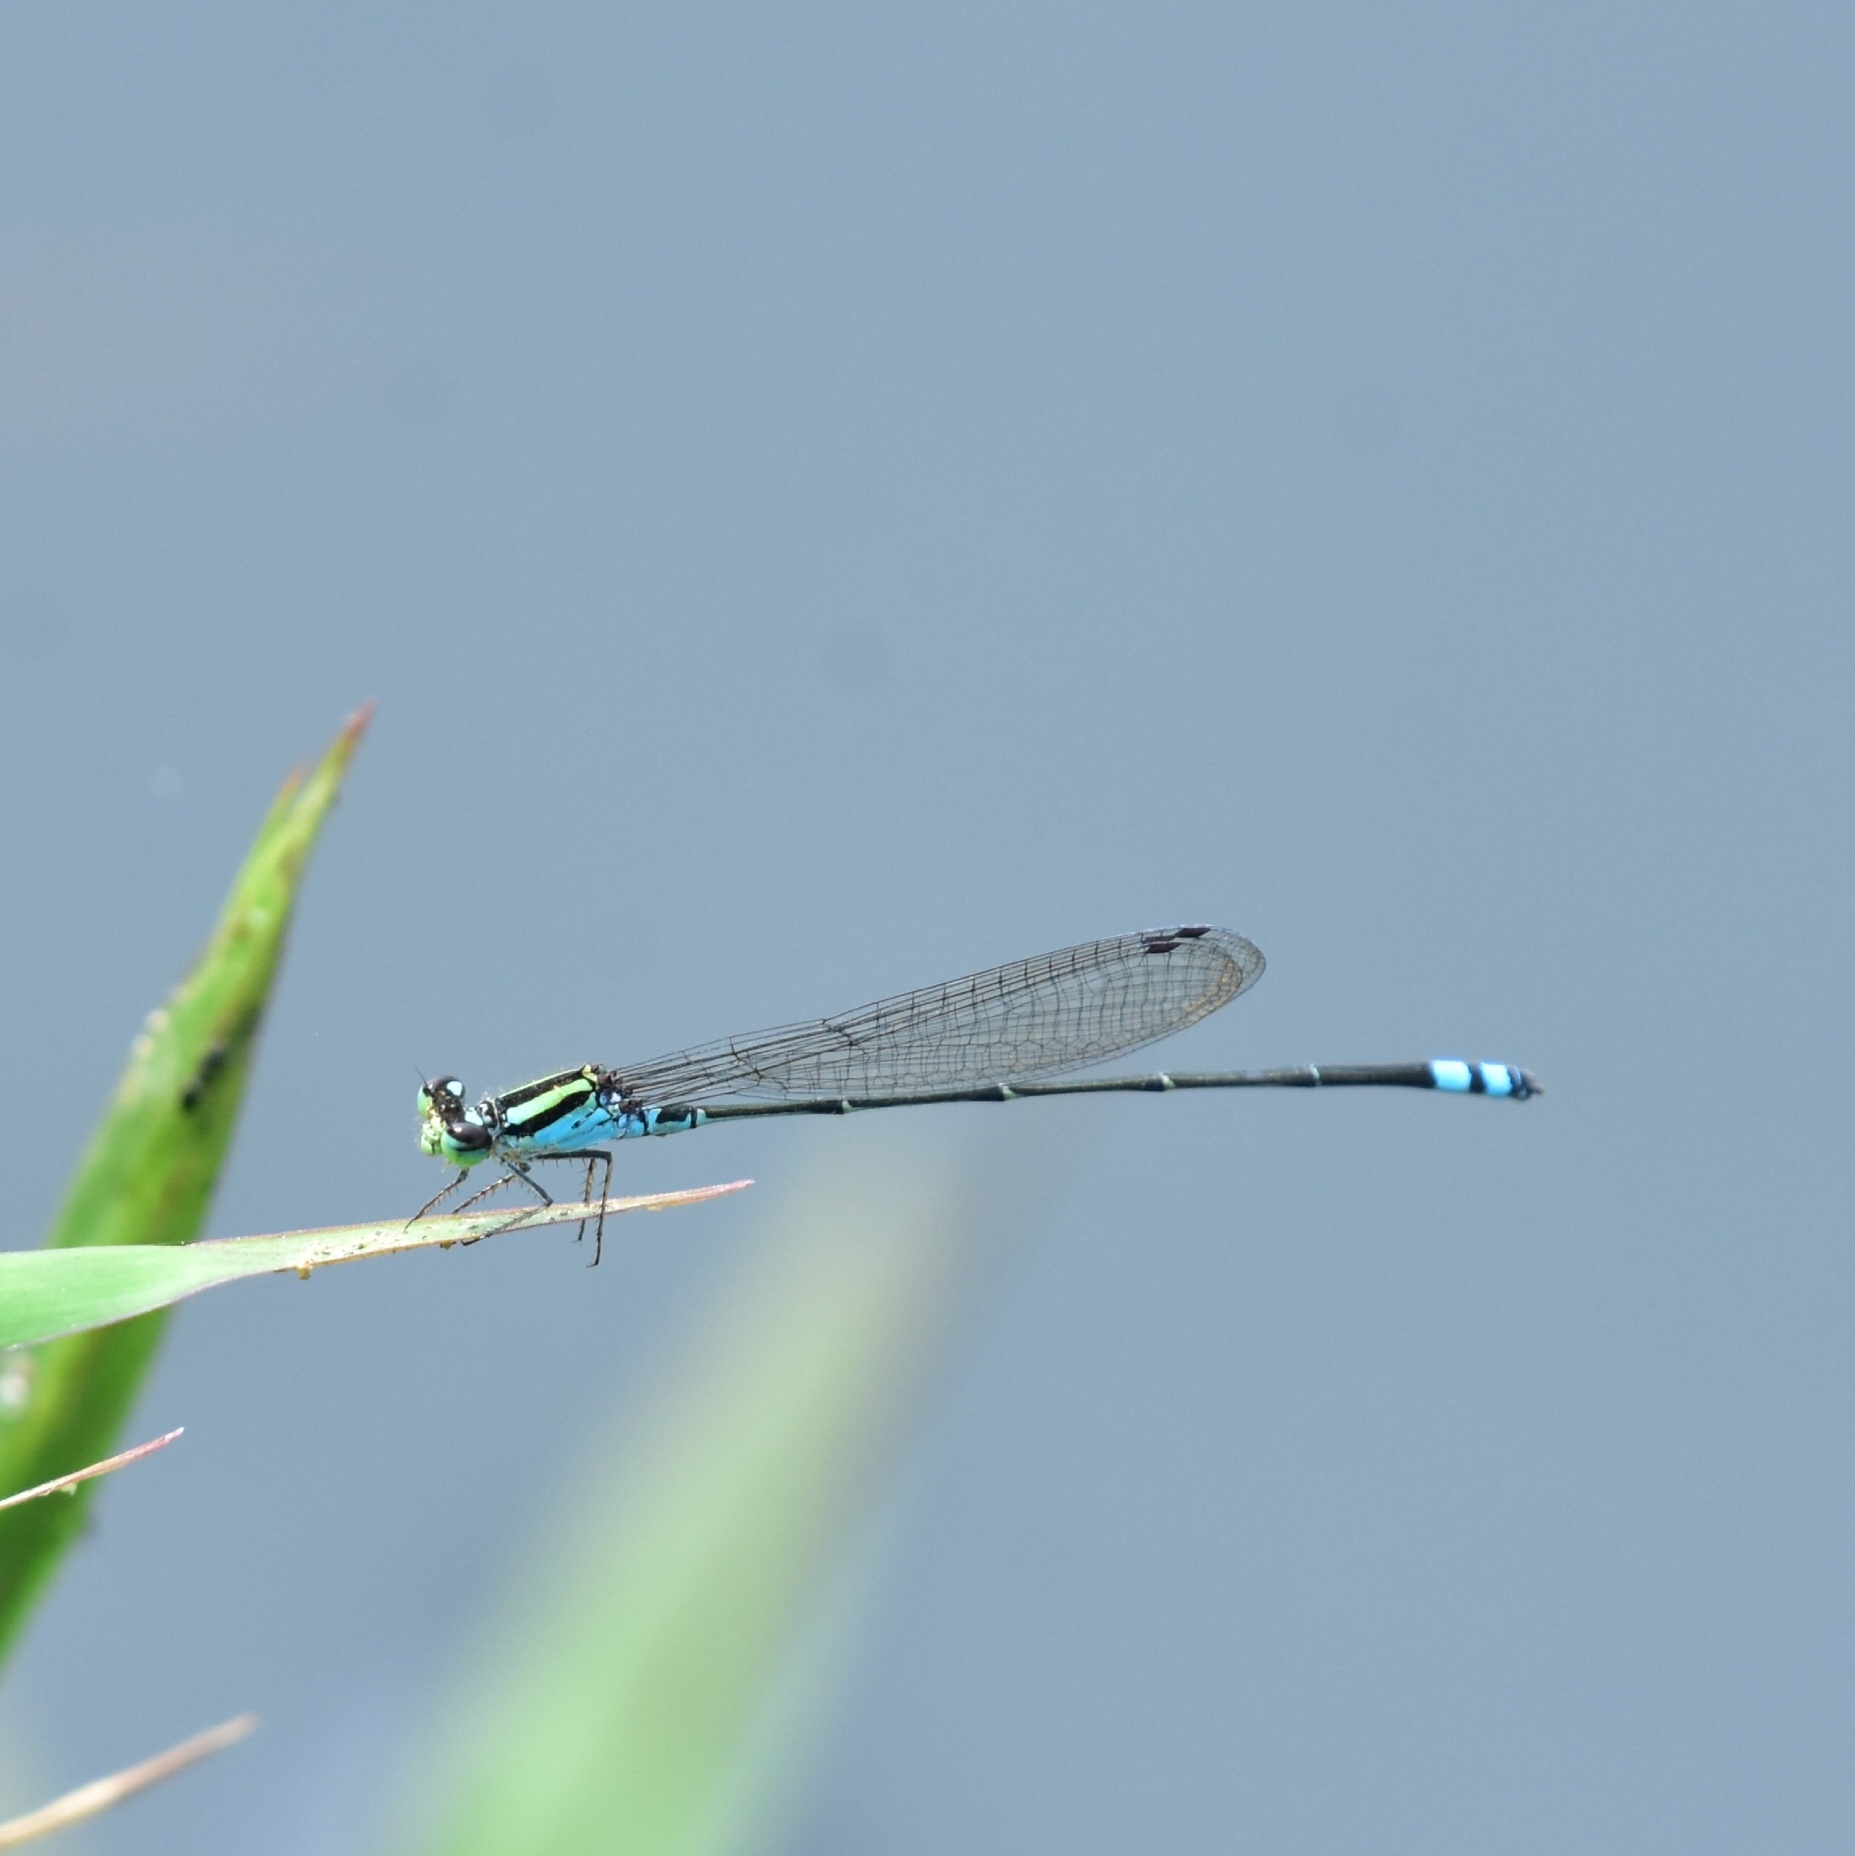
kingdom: Animalia
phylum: Arthropoda
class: Insecta
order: Odonata
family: Coenagrionidae
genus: Pseudagrion
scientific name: Pseudagrion indicum
